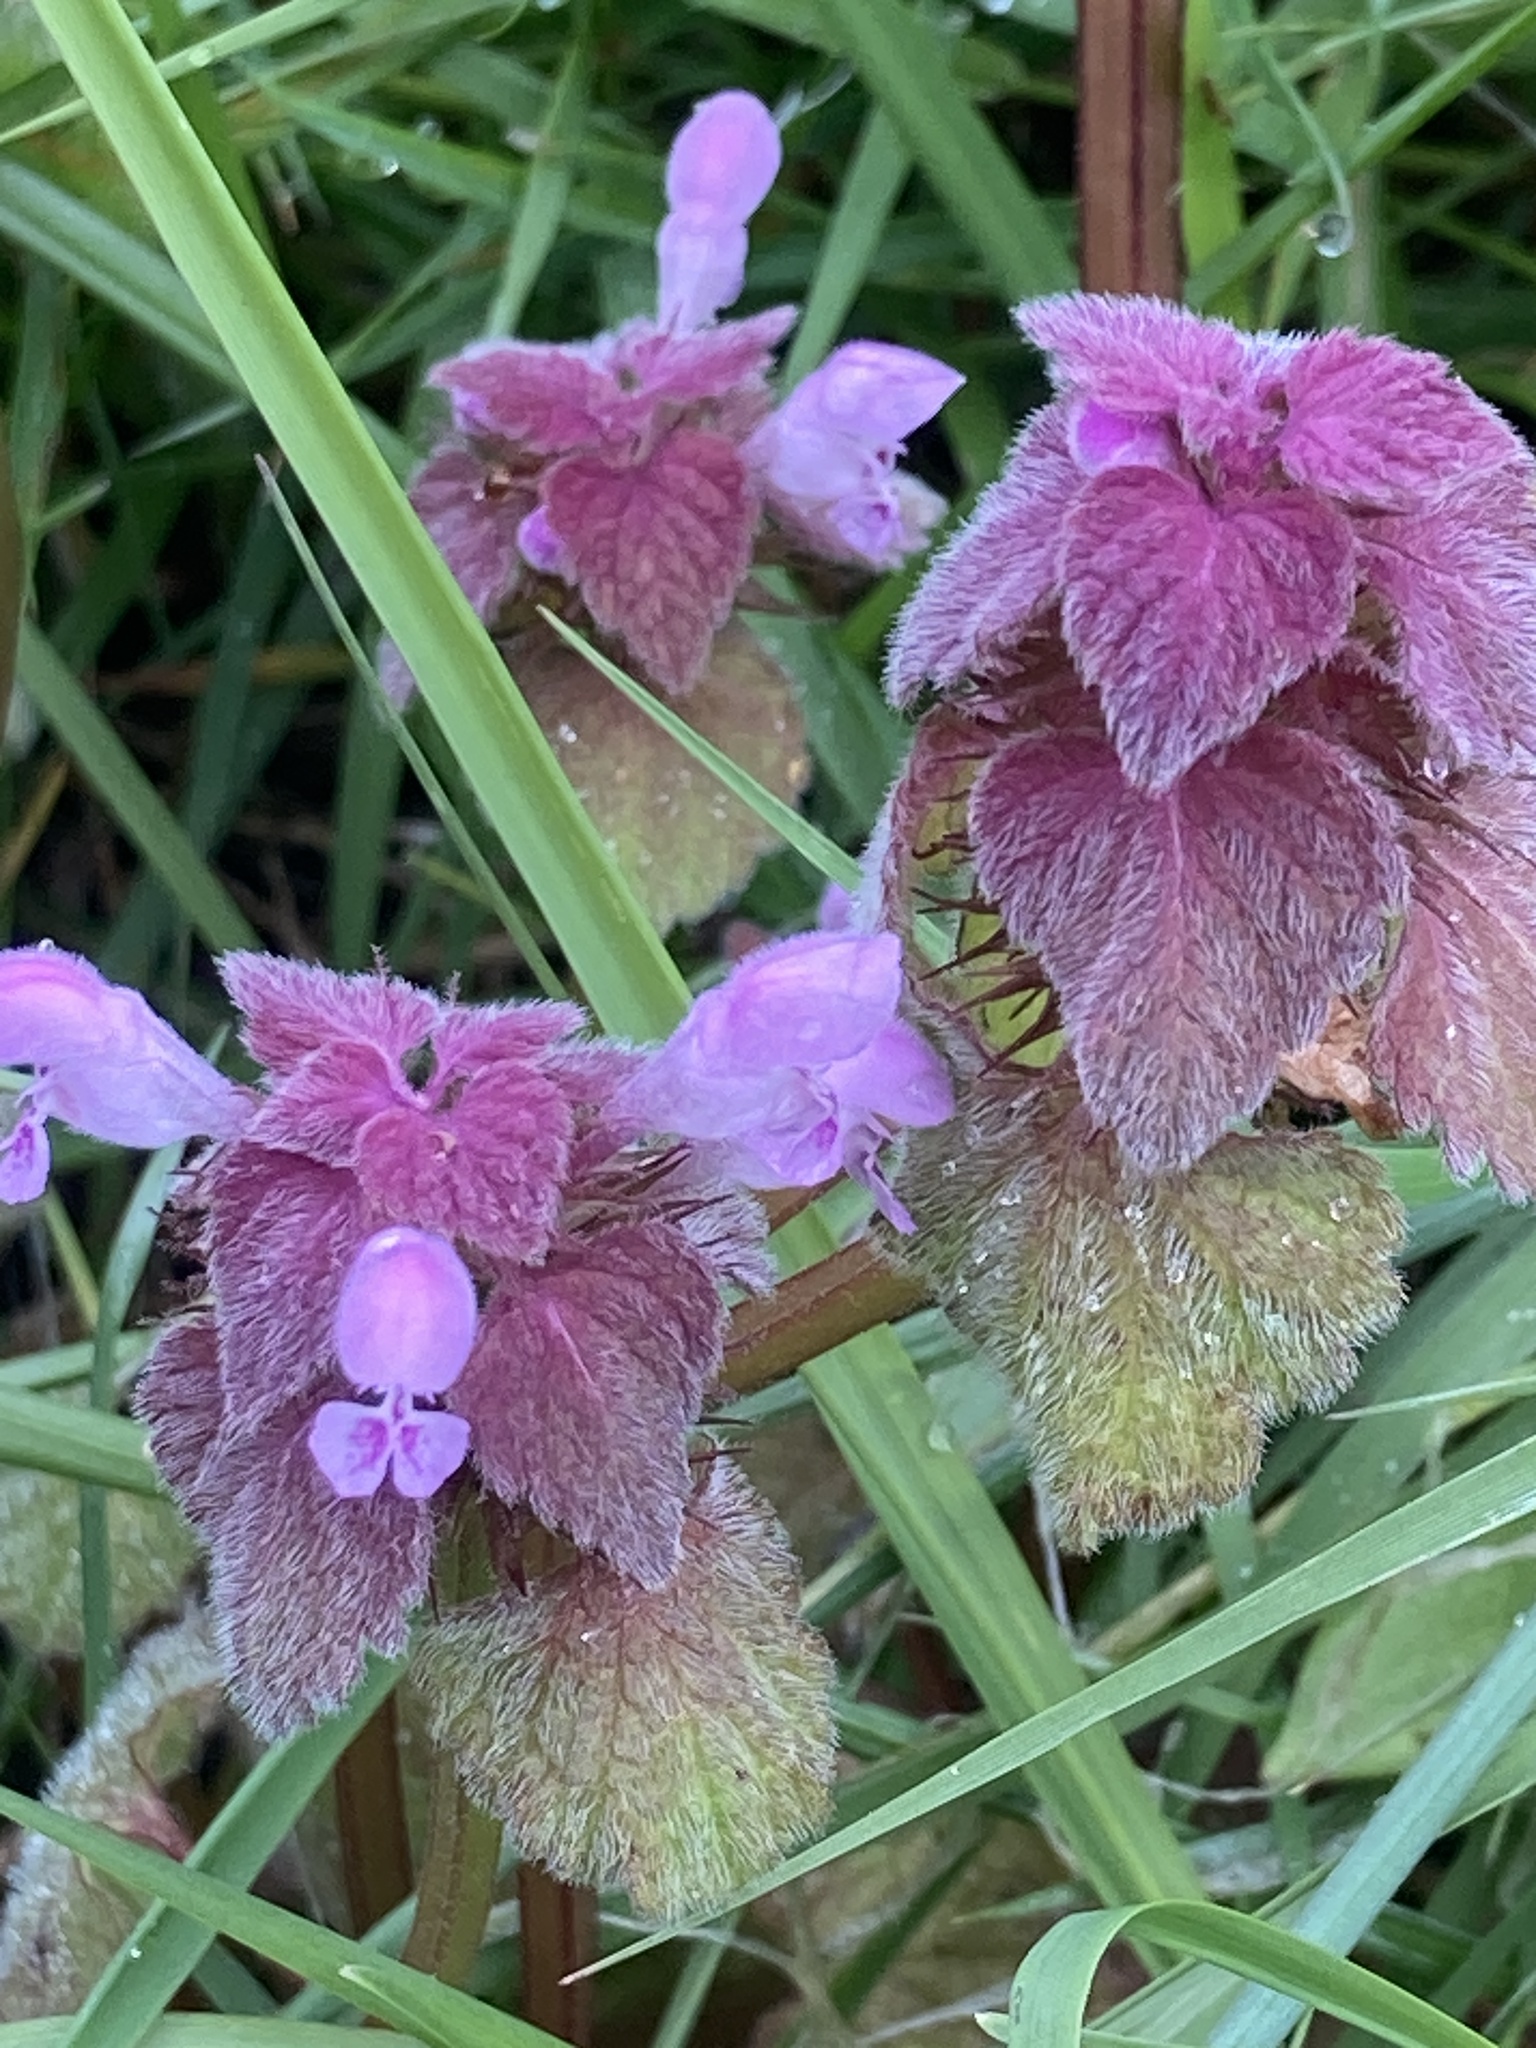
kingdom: Plantae
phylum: Tracheophyta
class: Magnoliopsida
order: Lamiales
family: Lamiaceae
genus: Lamium
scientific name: Lamium purpureum
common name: Red dead-nettle
